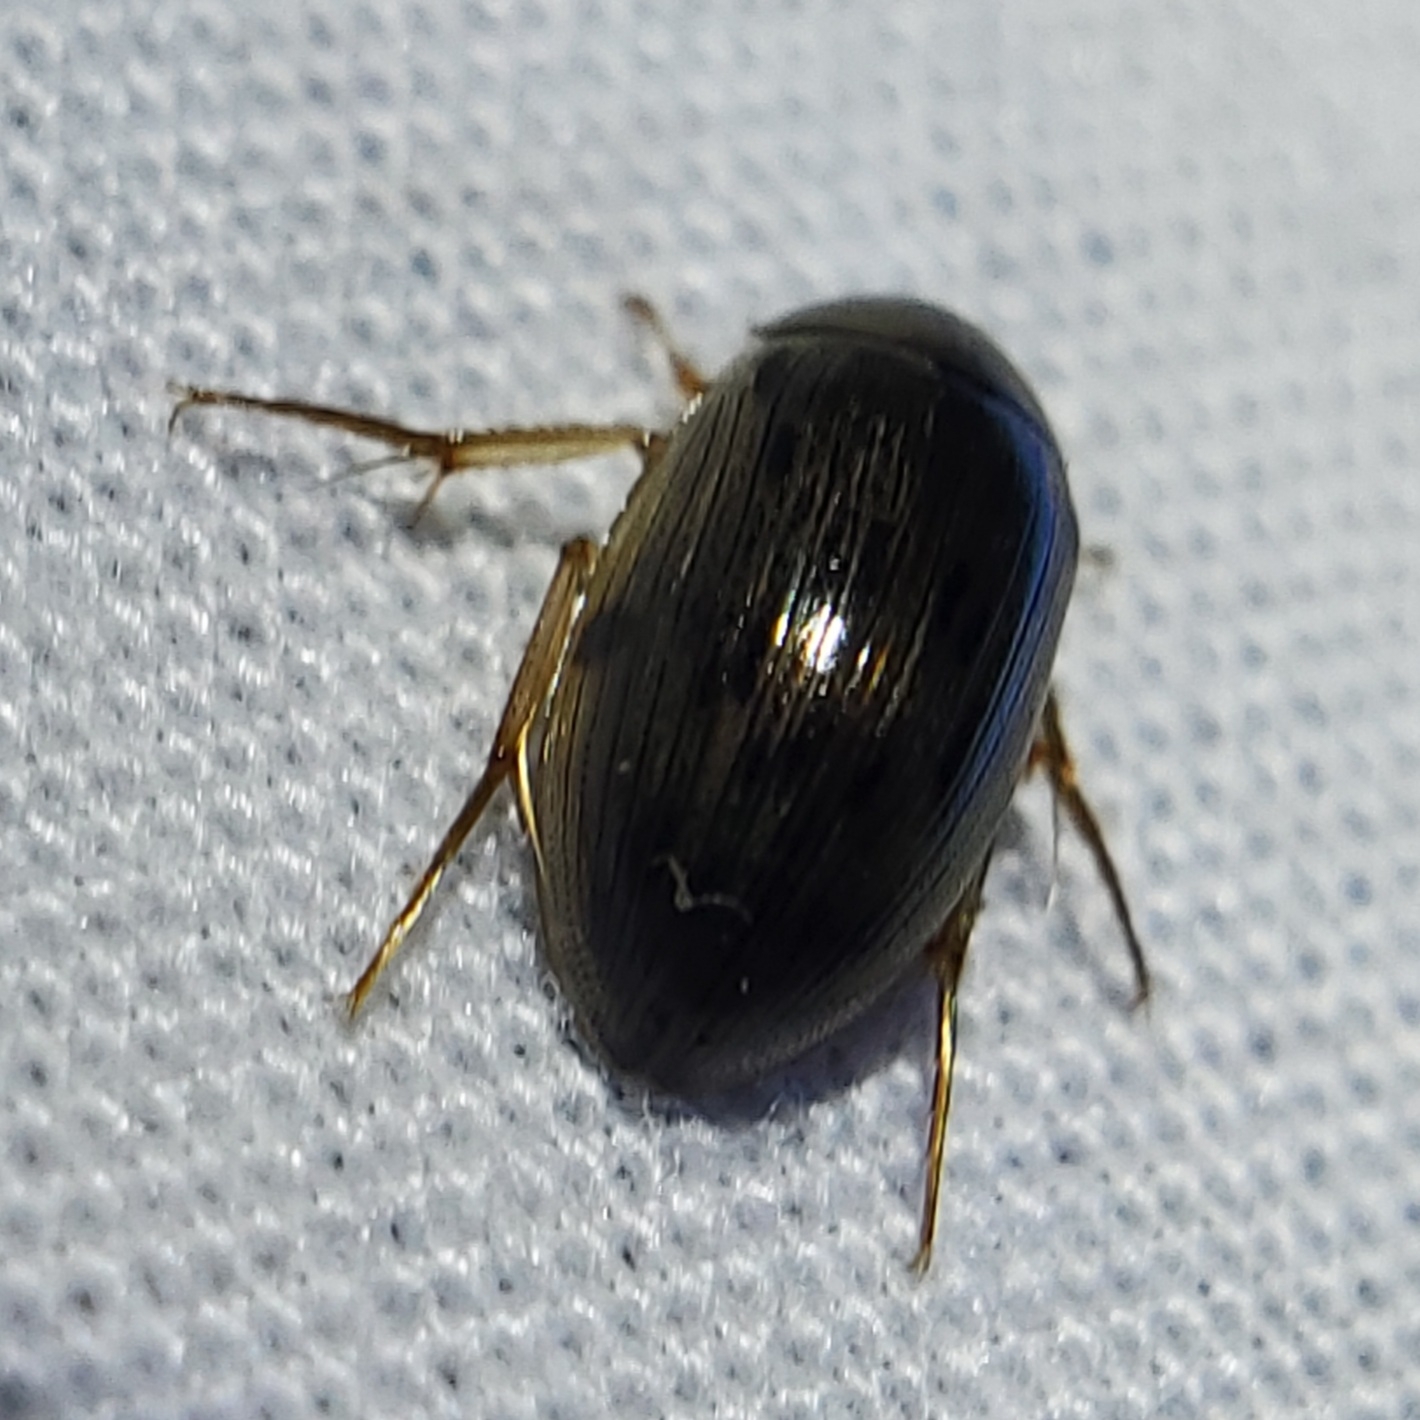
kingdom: Animalia
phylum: Arthropoda
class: Insecta
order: Coleoptera
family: Hydrophilidae
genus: Berosus
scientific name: Berosus
